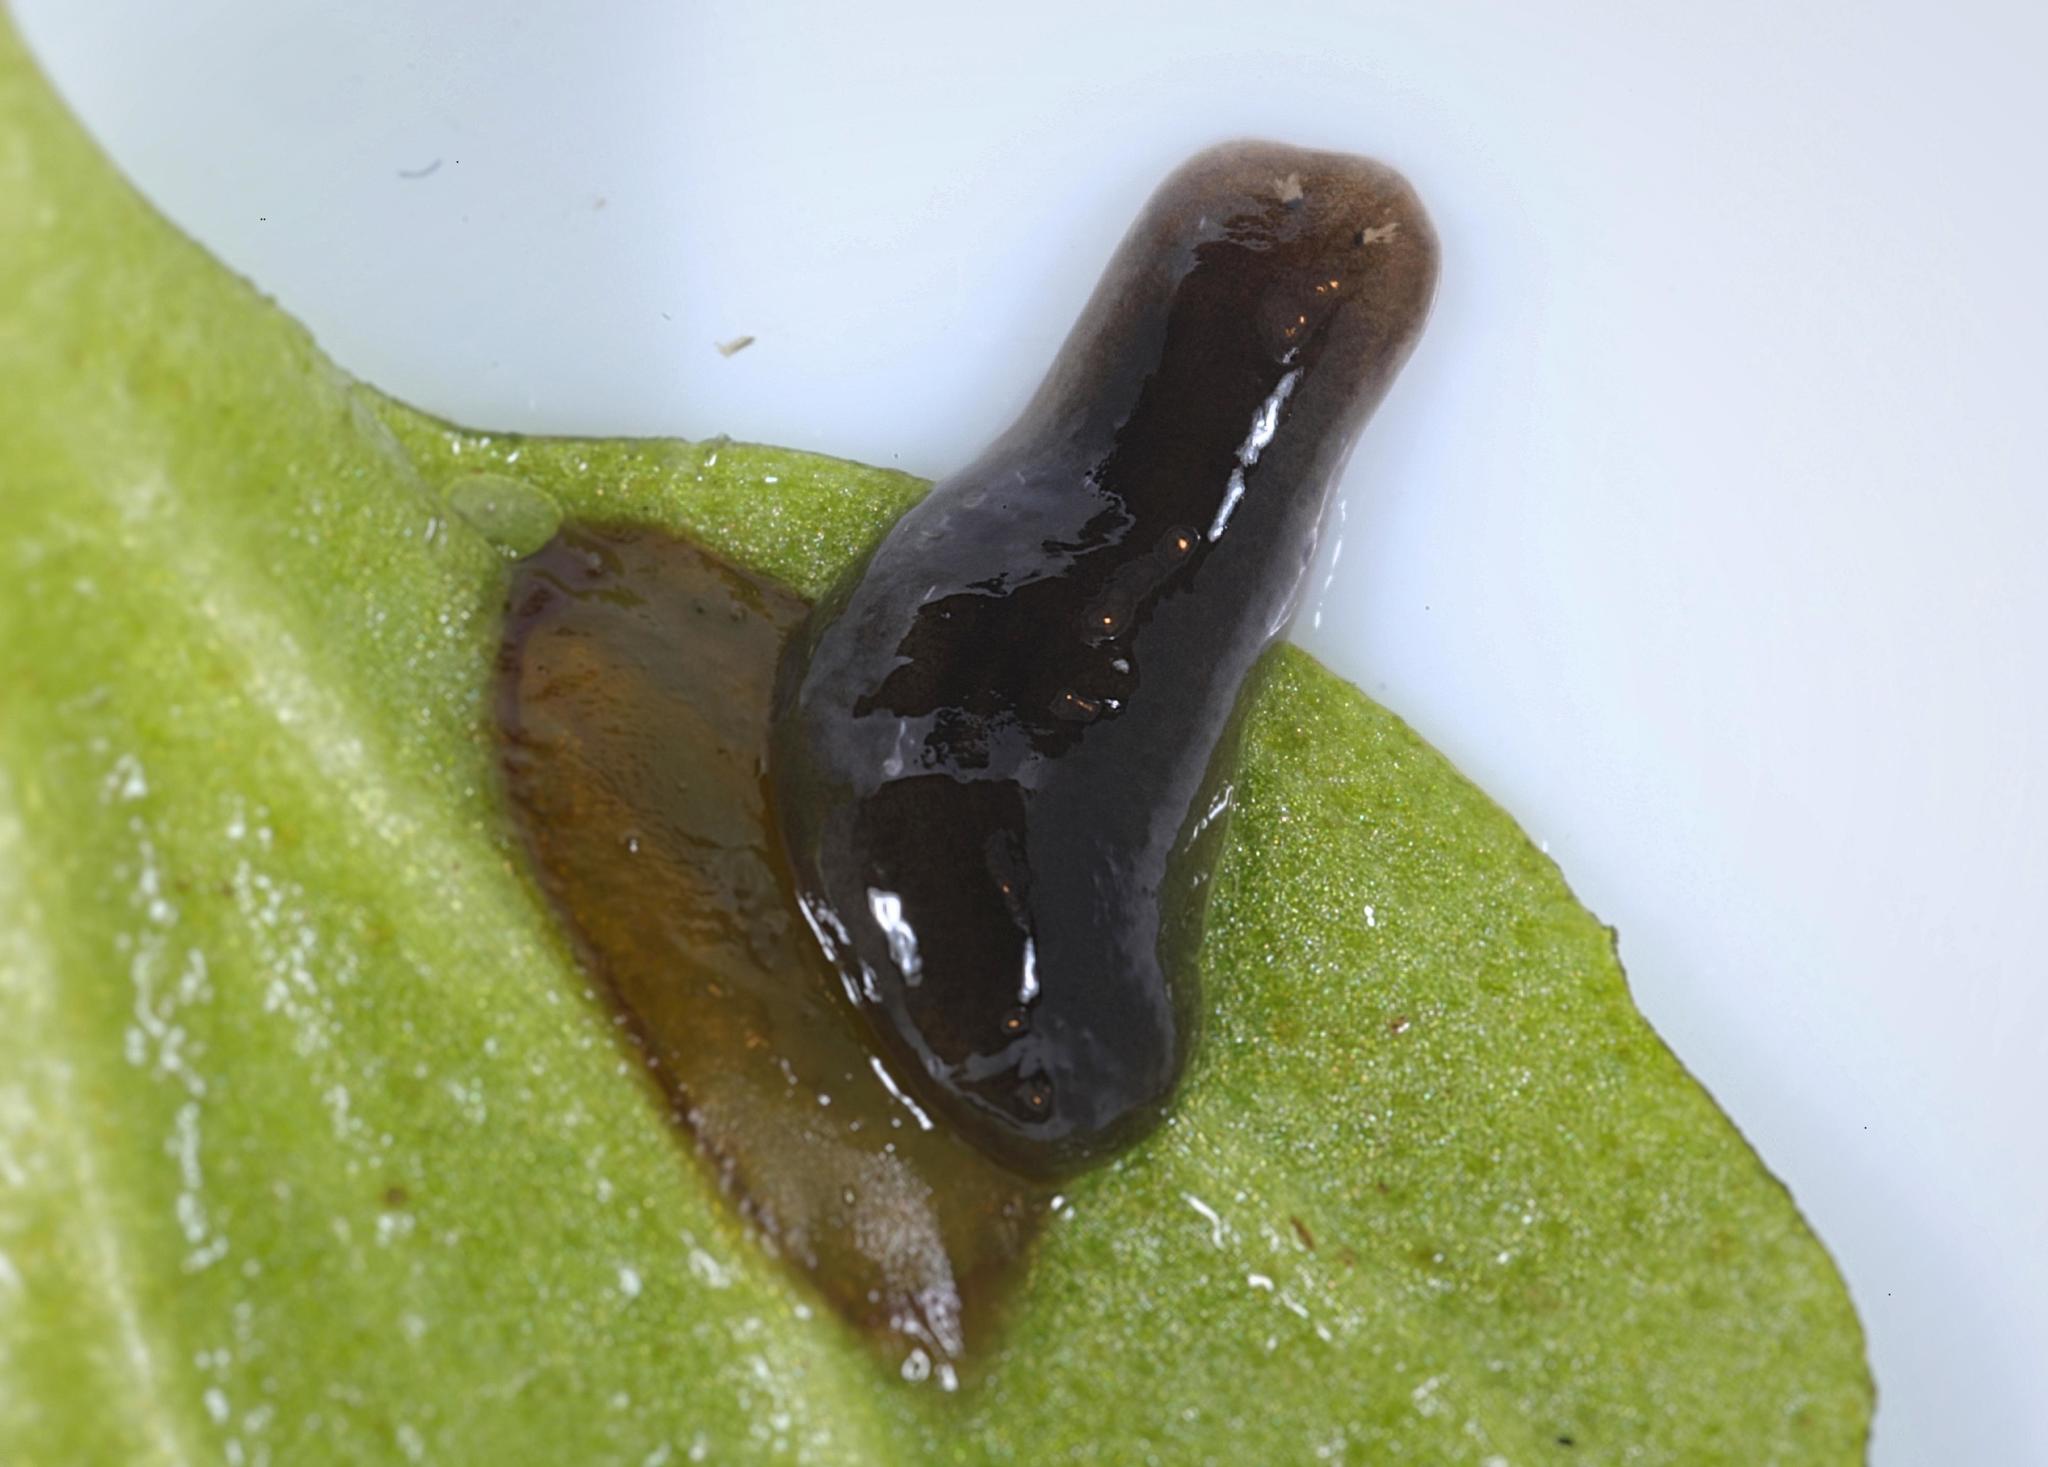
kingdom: Animalia
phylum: Platyhelminthes
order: Tricladida
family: Dugesiidae
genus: Schmidtea
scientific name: Schmidtea
